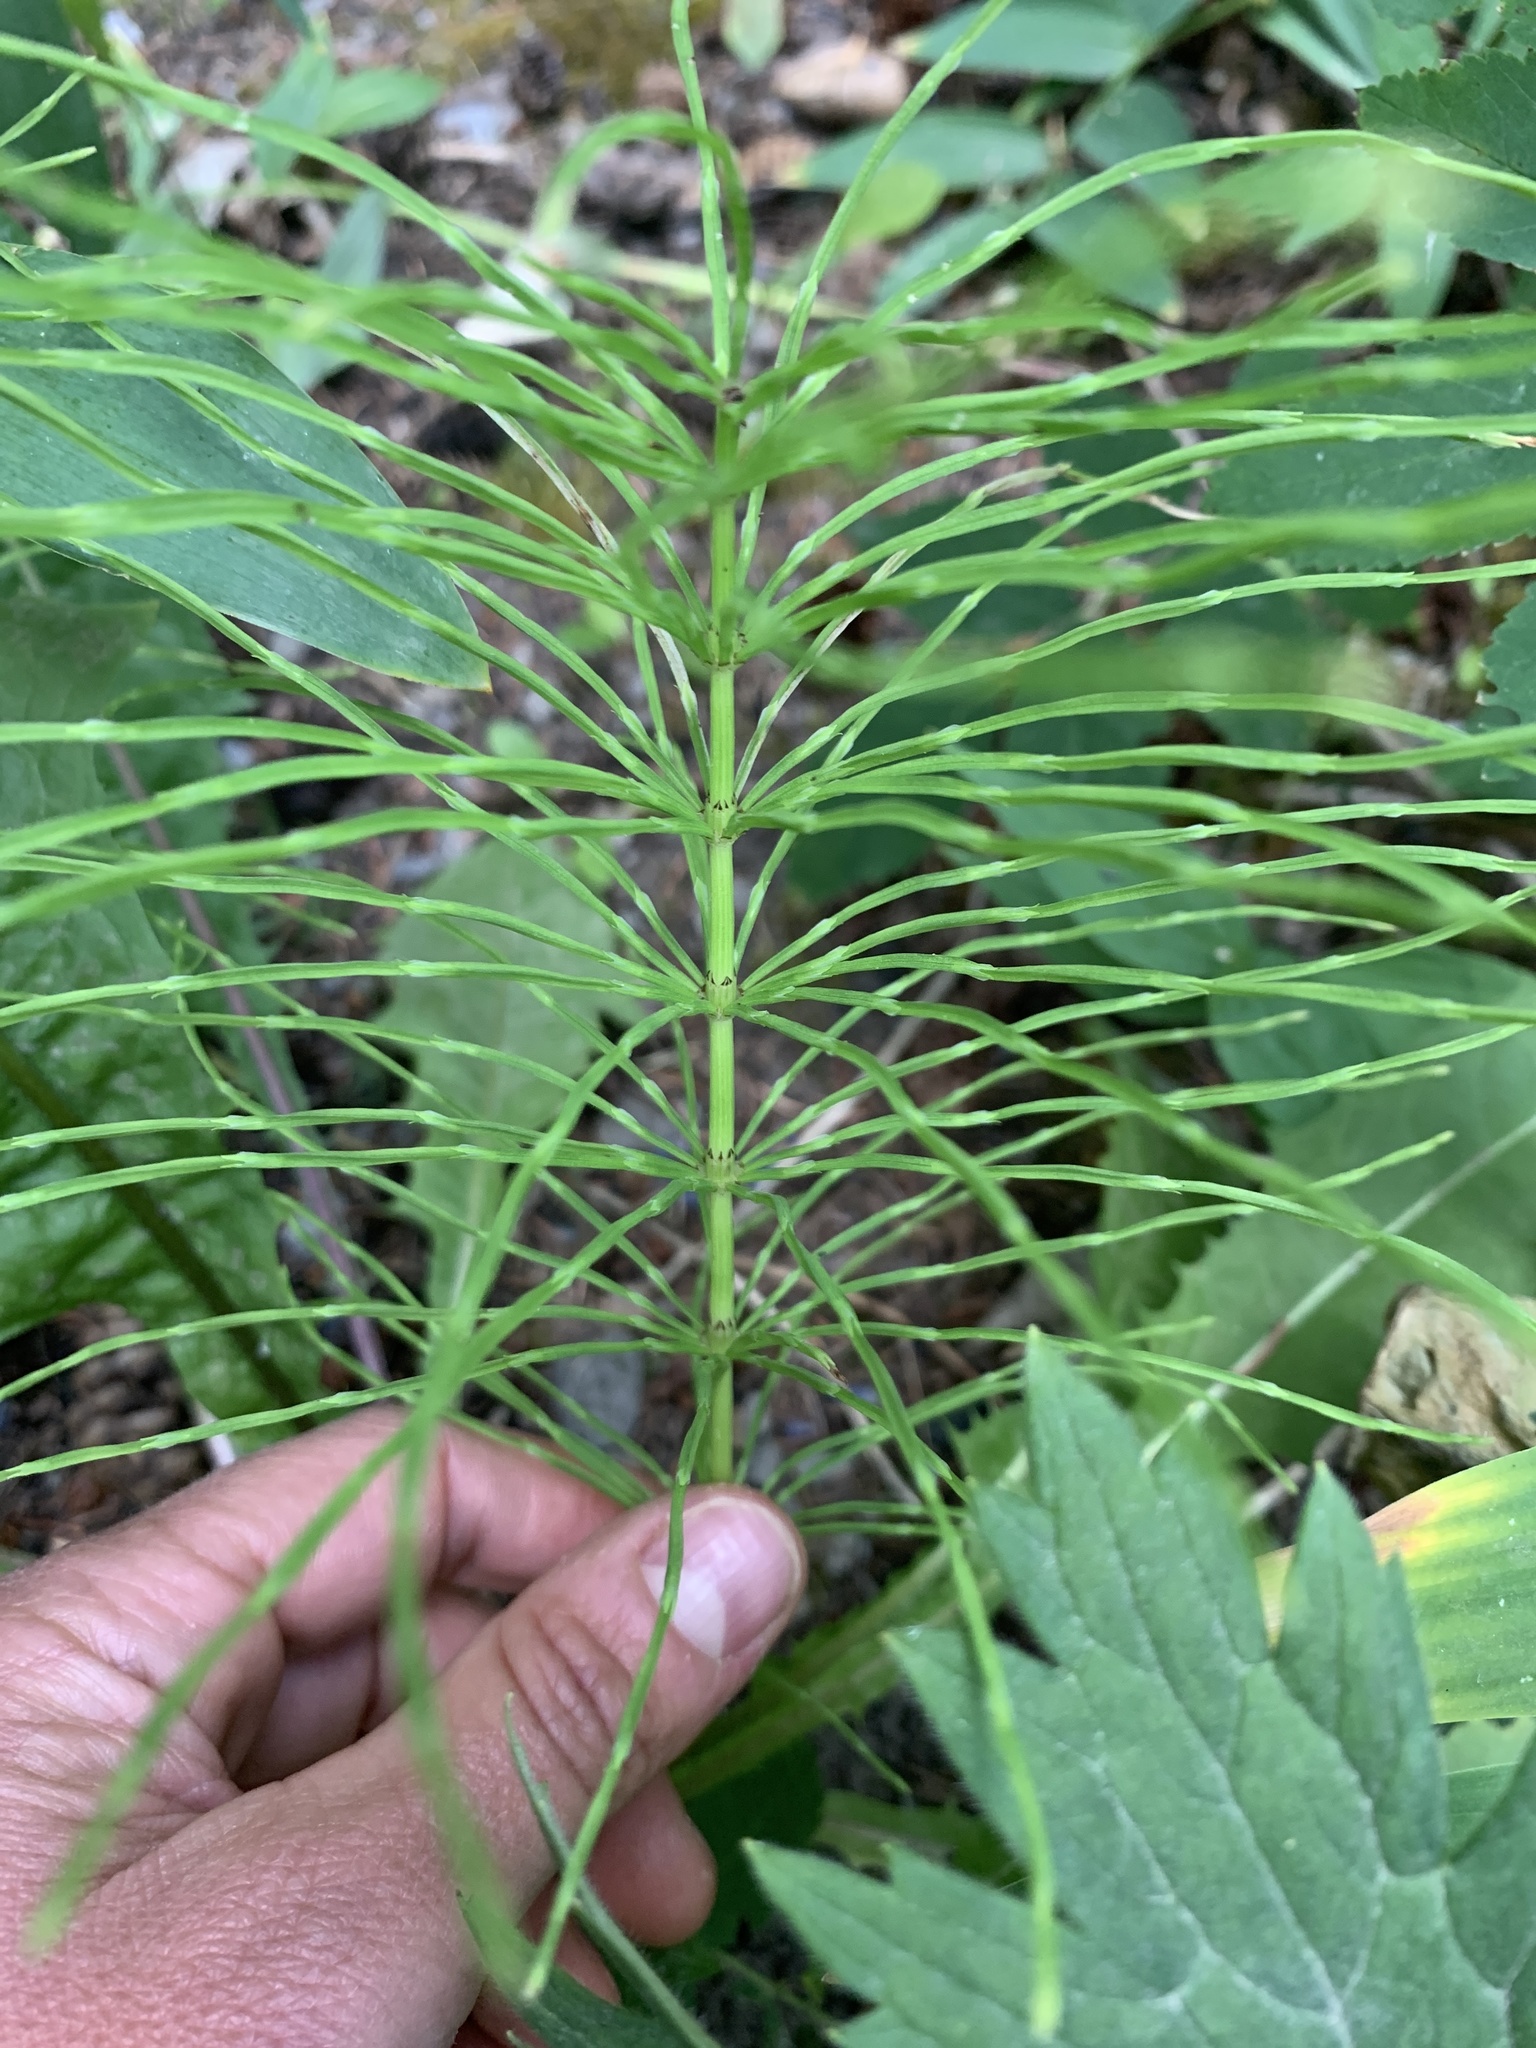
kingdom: Plantae
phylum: Tracheophyta
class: Polypodiopsida
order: Equisetales
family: Equisetaceae
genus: Equisetum
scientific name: Equisetum arvense
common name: Field horsetail
